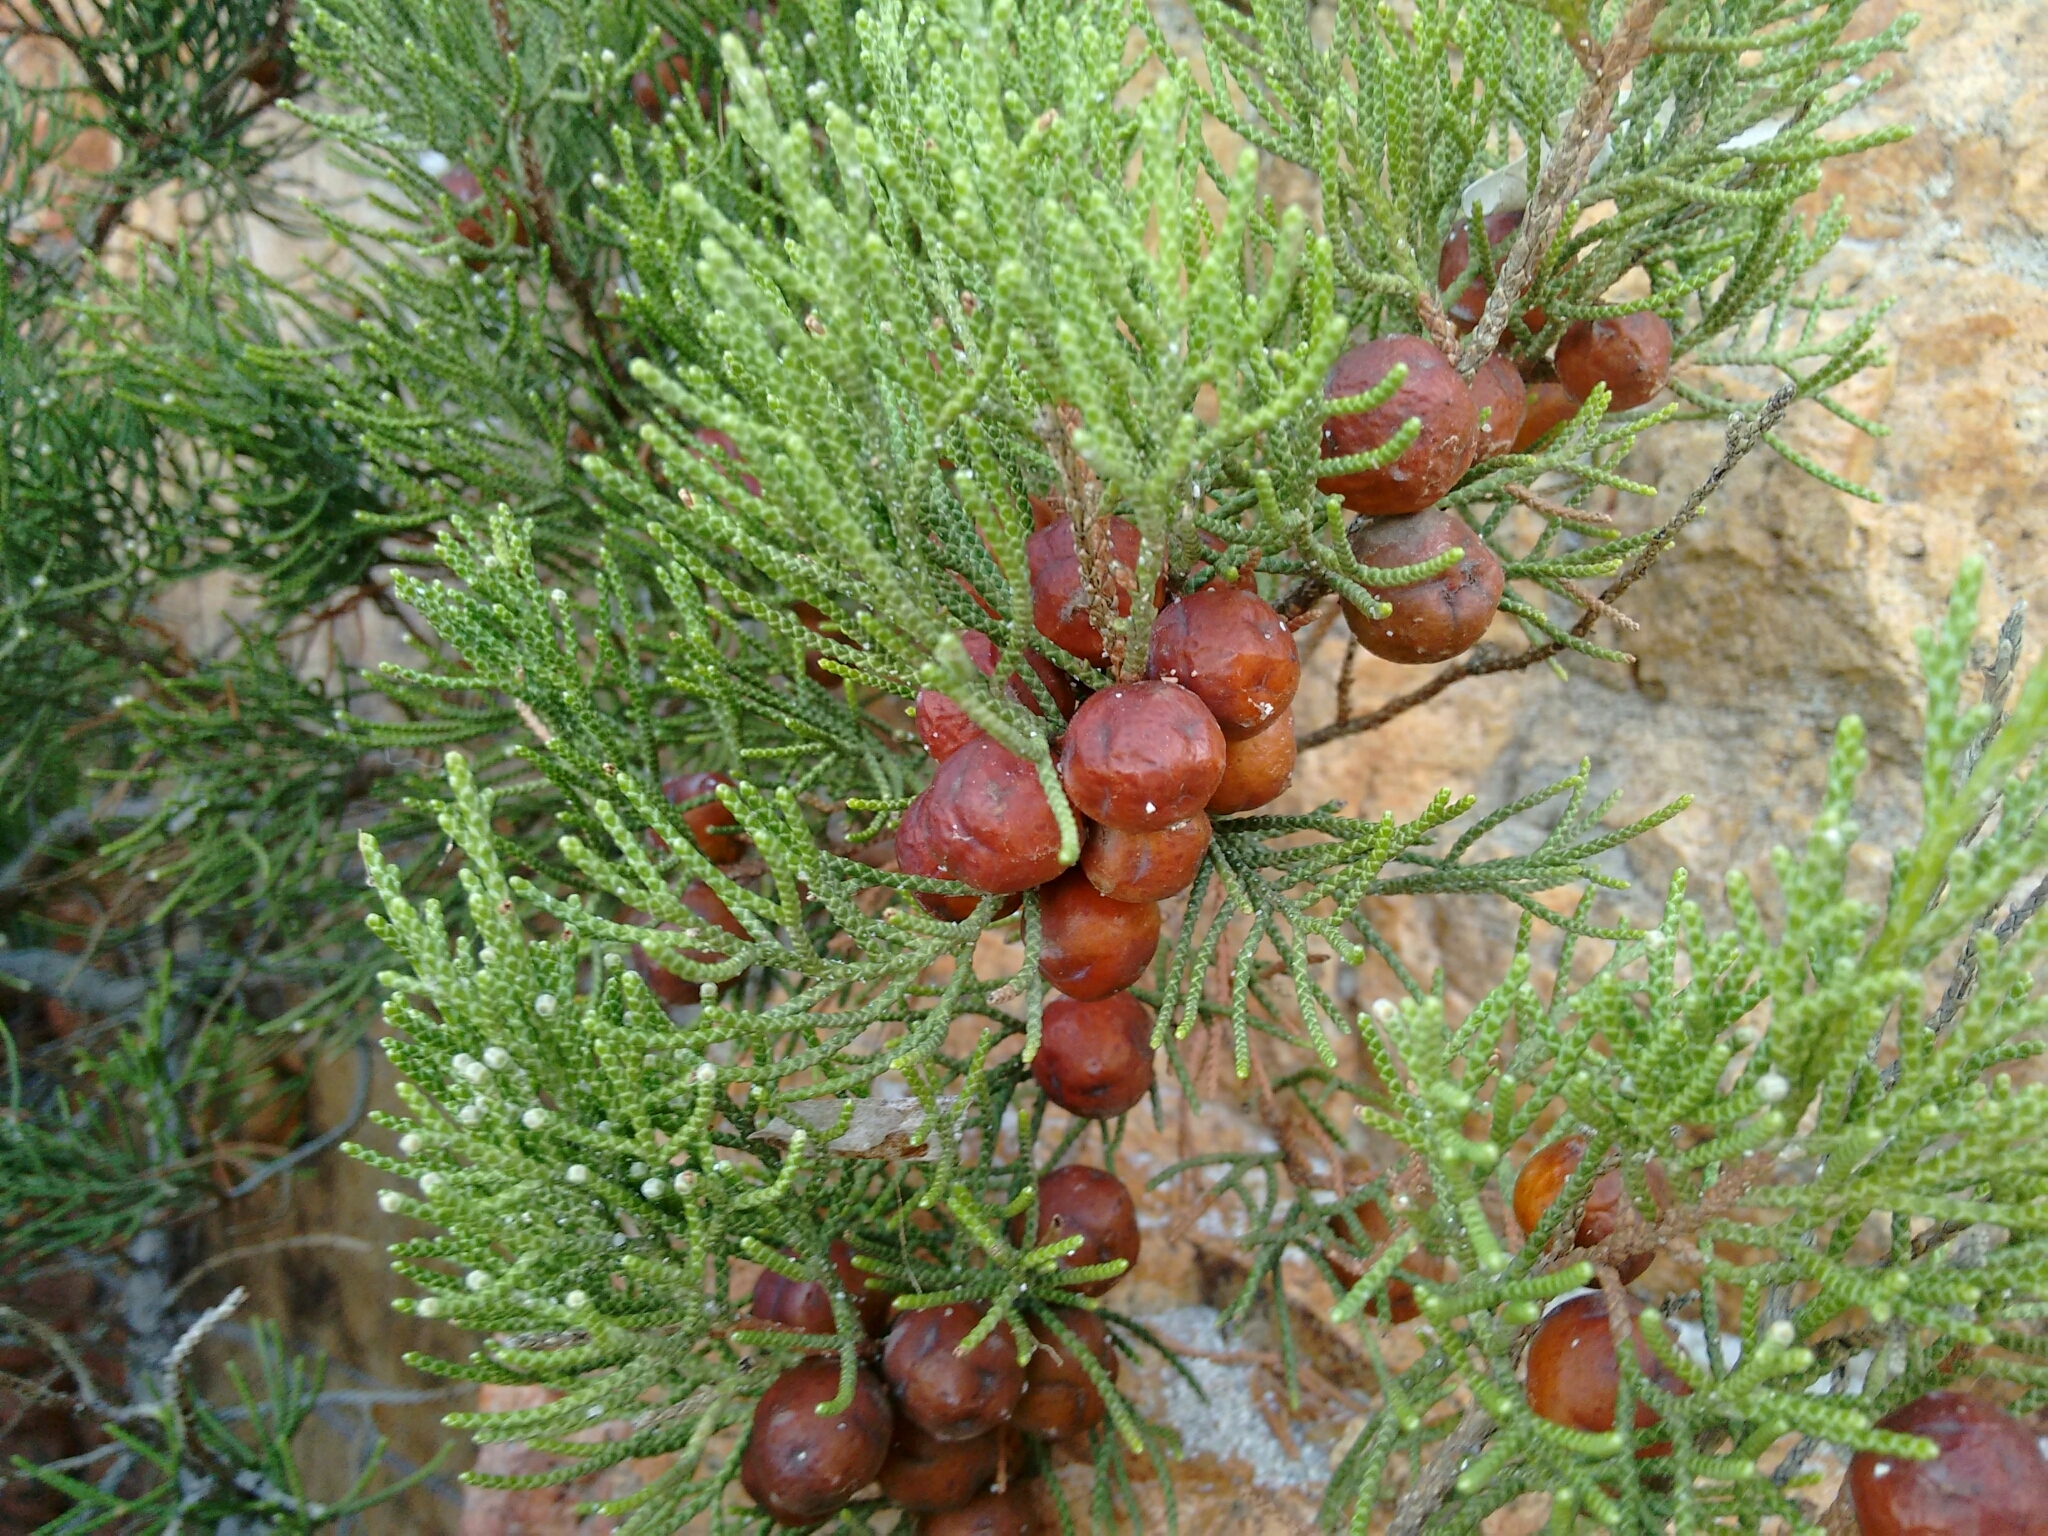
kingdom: Plantae
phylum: Tracheophyta
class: Pinopsida
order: Pinales
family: Cupressaceae
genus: Juniperus
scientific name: Juniperus phoenicea
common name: Phoenician juniper
